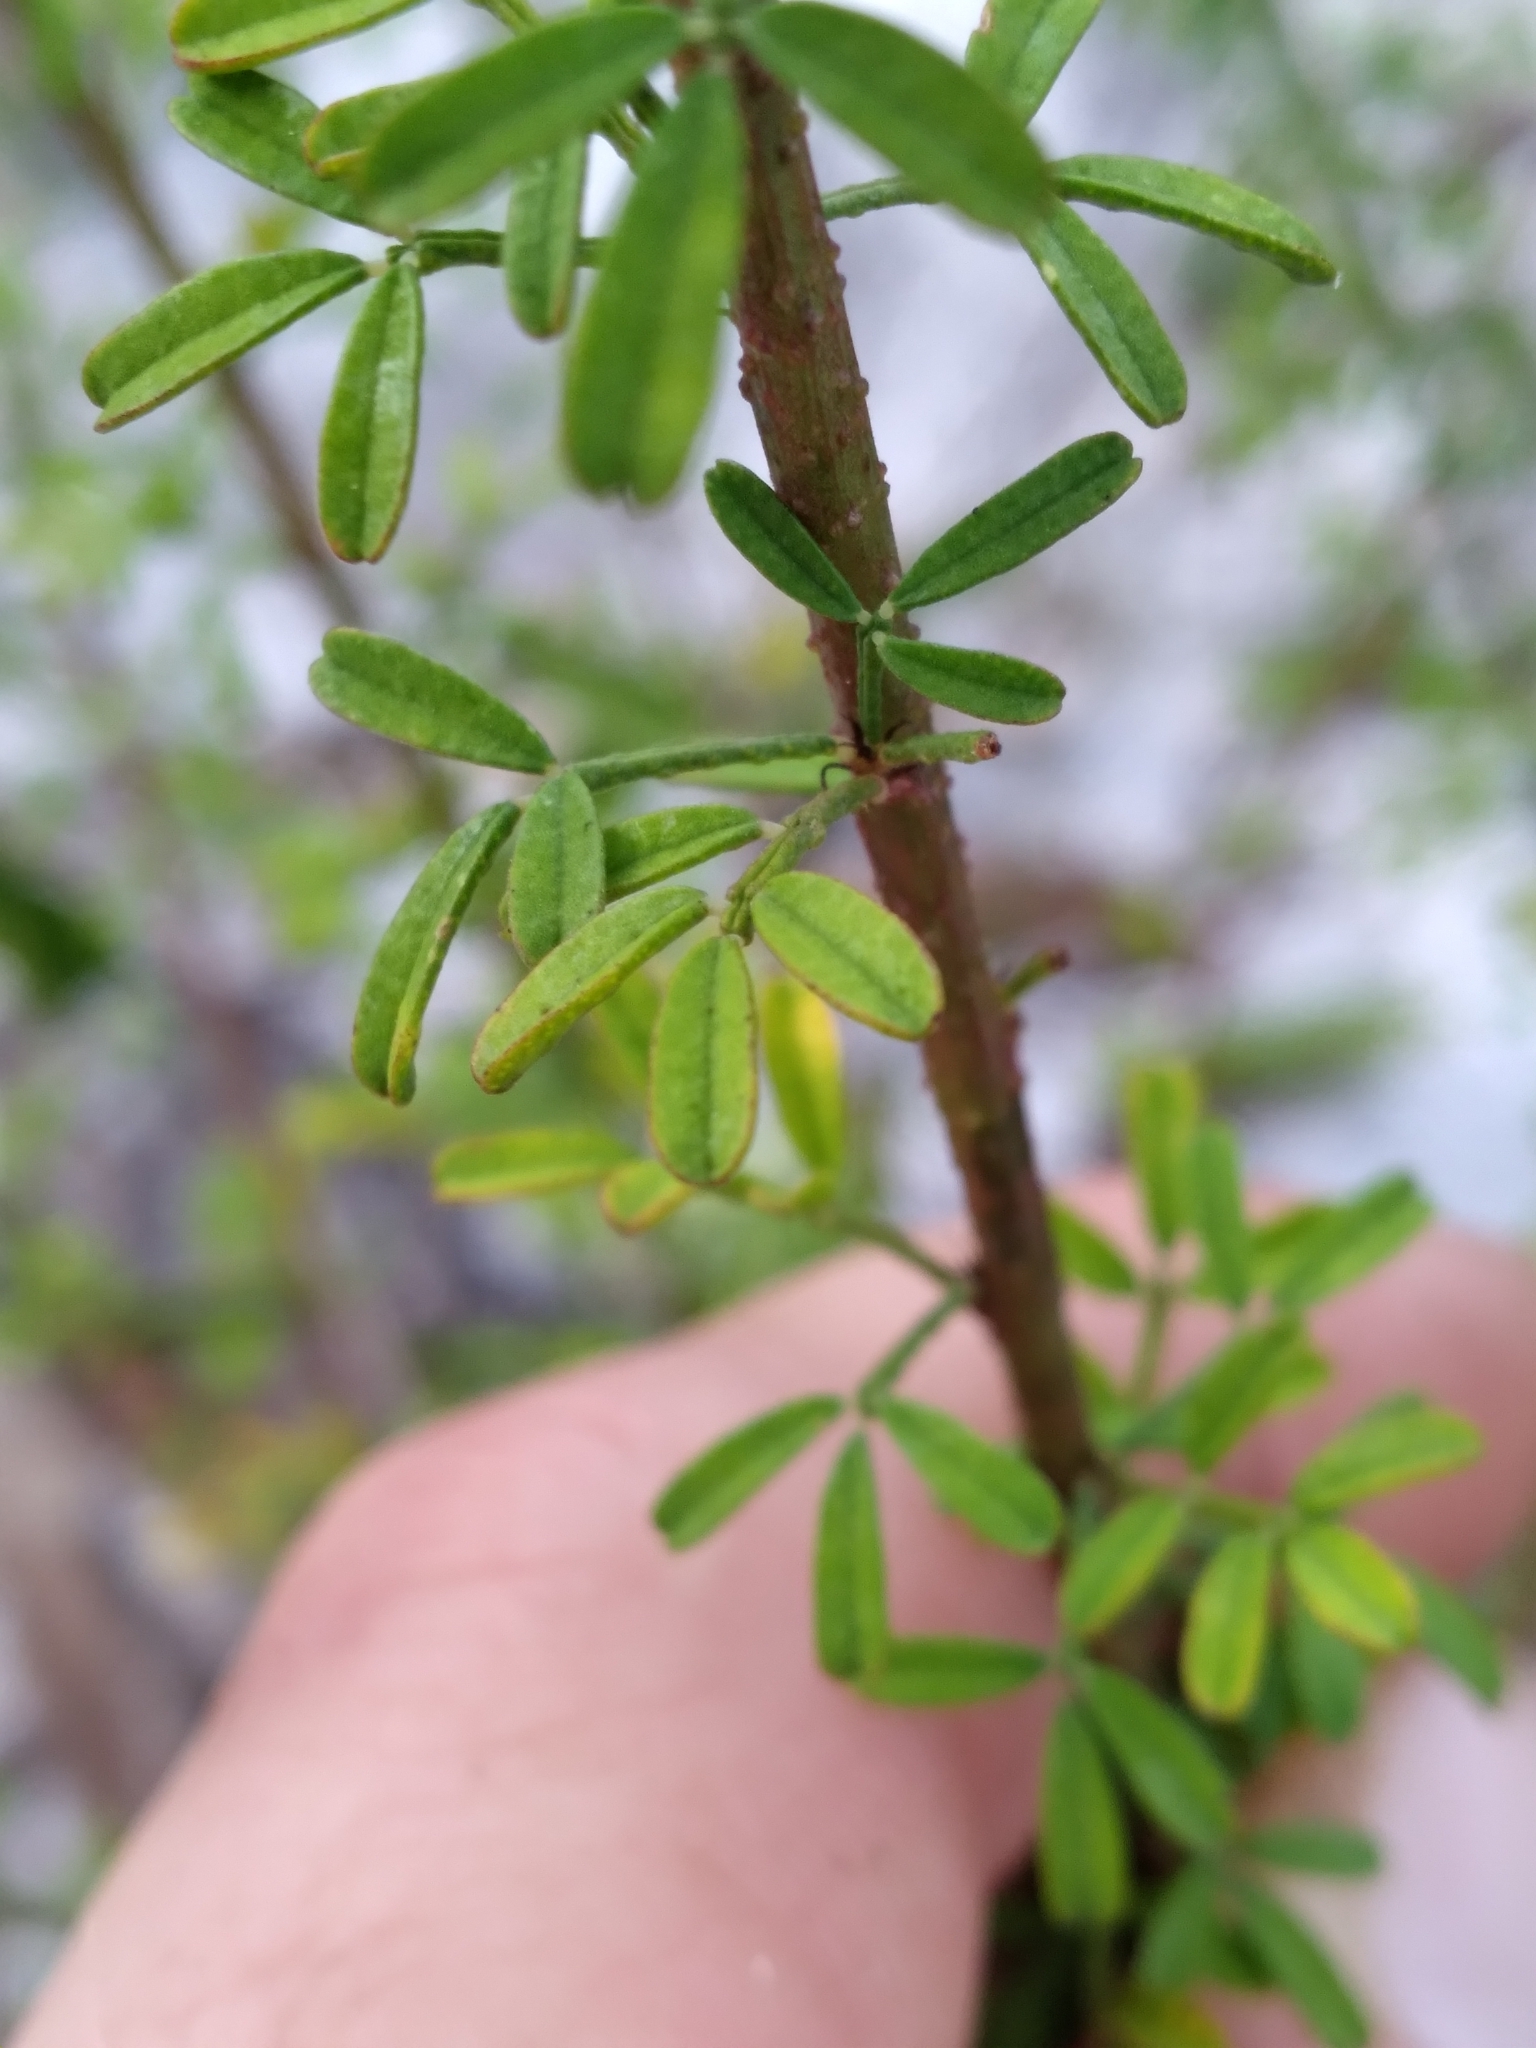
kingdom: Plantae
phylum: Tracheophyta
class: Magnoliopsida
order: Fabales
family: Fabaceae
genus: Dalea
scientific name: Dalea pinnata
